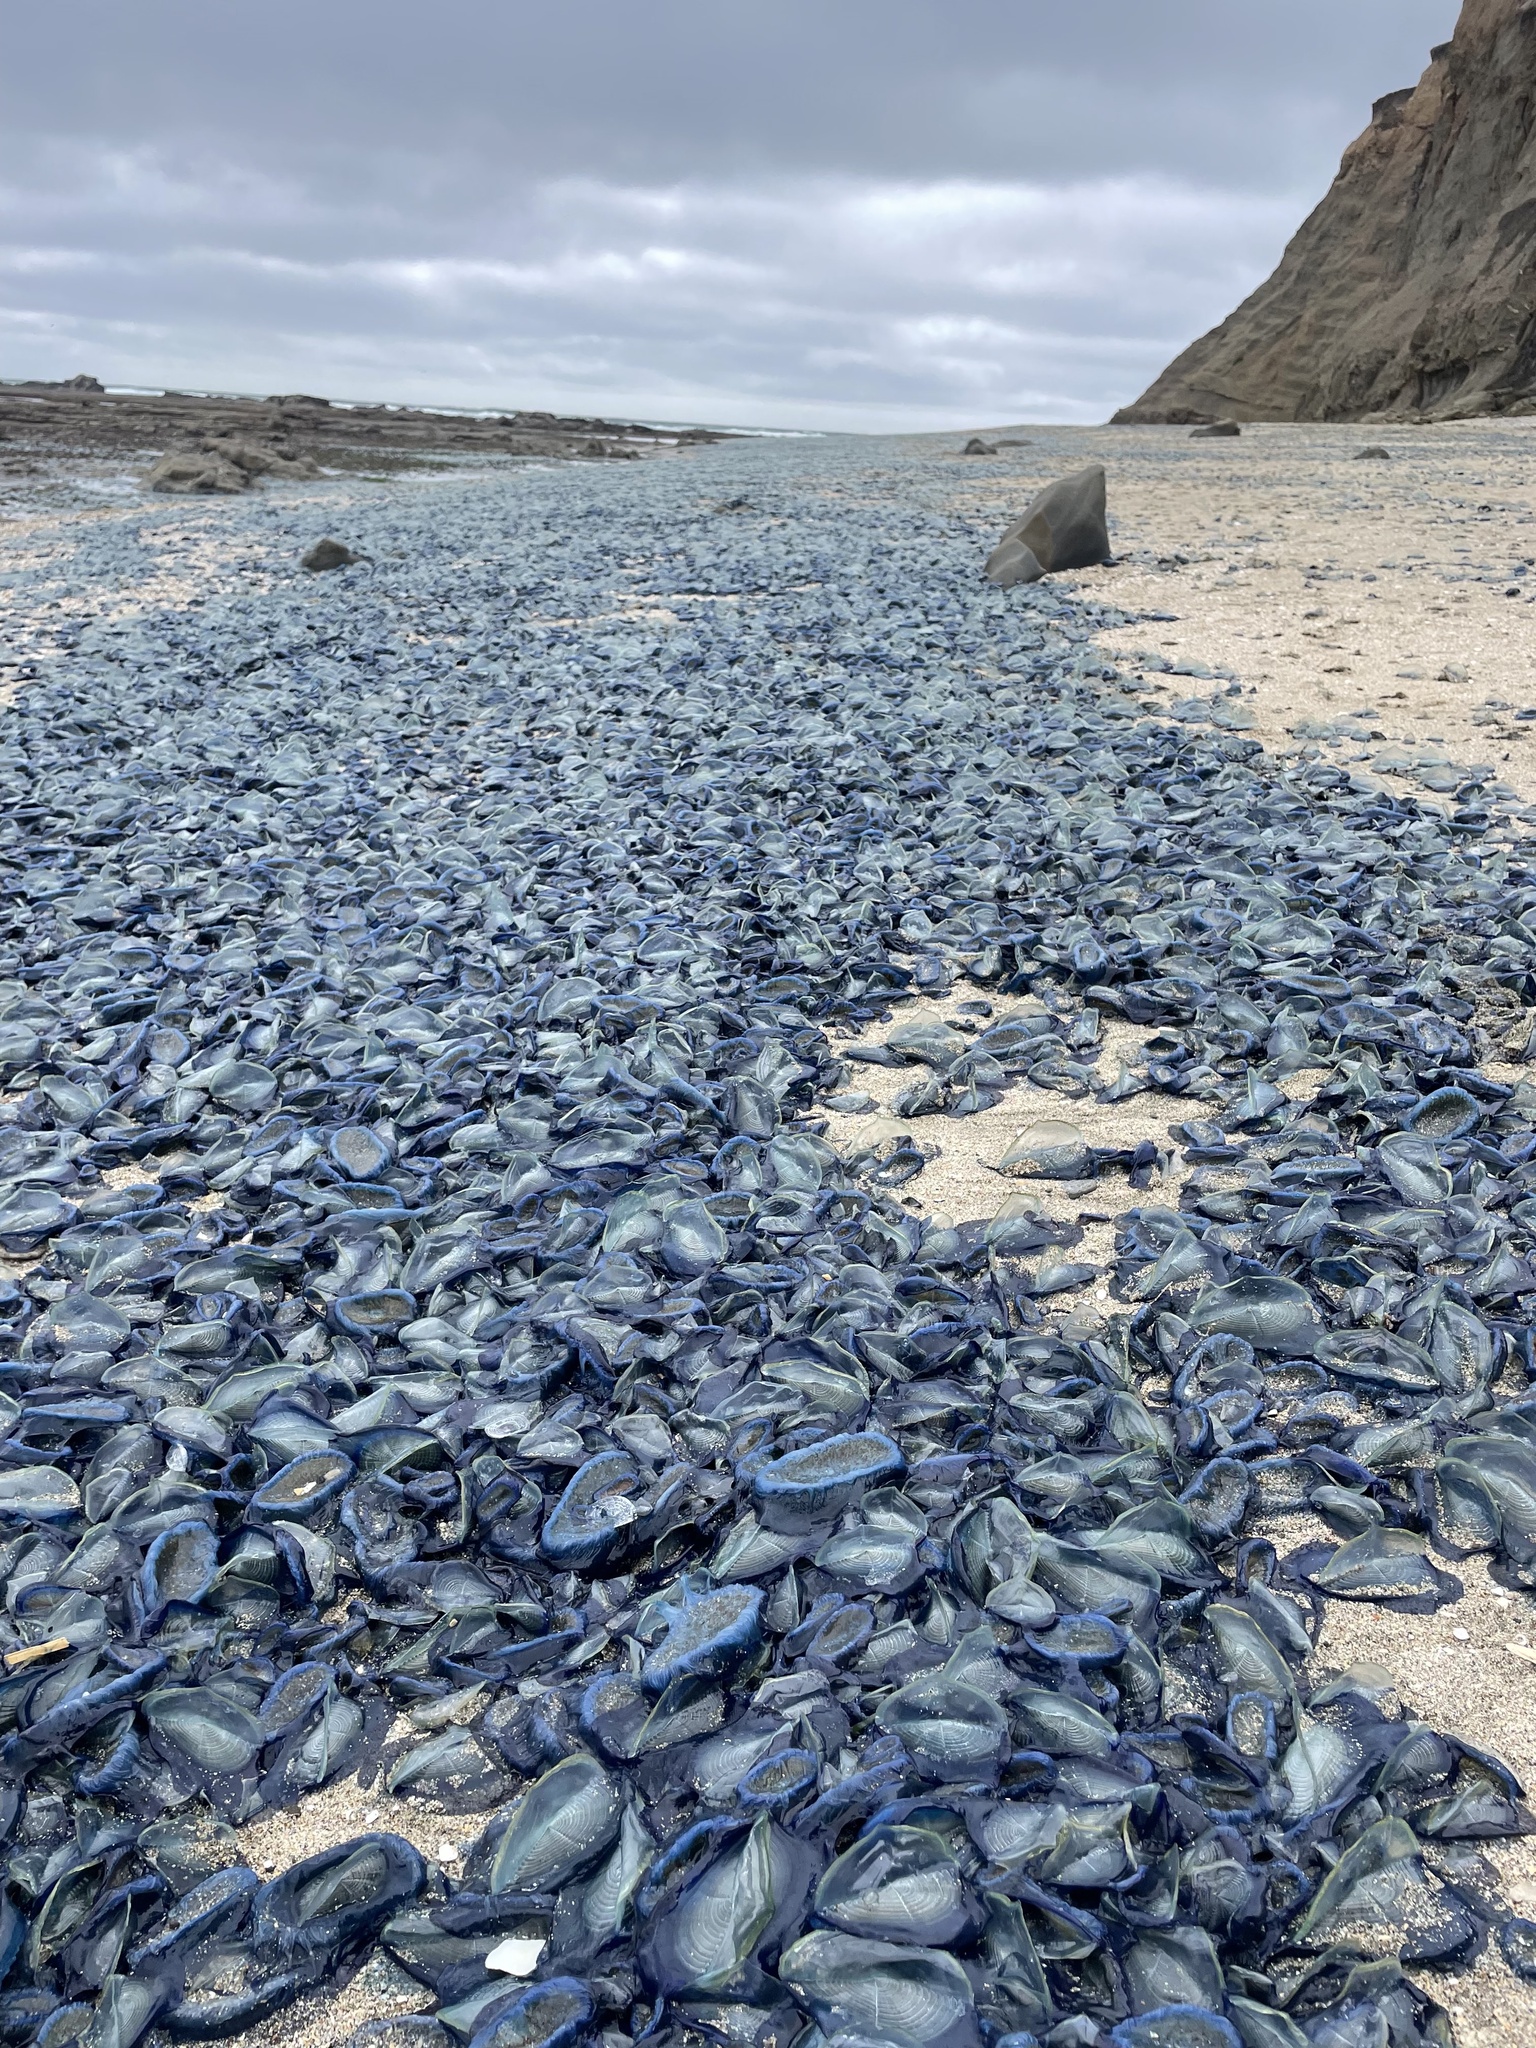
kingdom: Animalia
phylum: Cnidaria
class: Hydrozoa
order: Anthoathecata
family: Porpitidae
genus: Velella
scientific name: Velella velella
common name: By-the-wind-sailor
